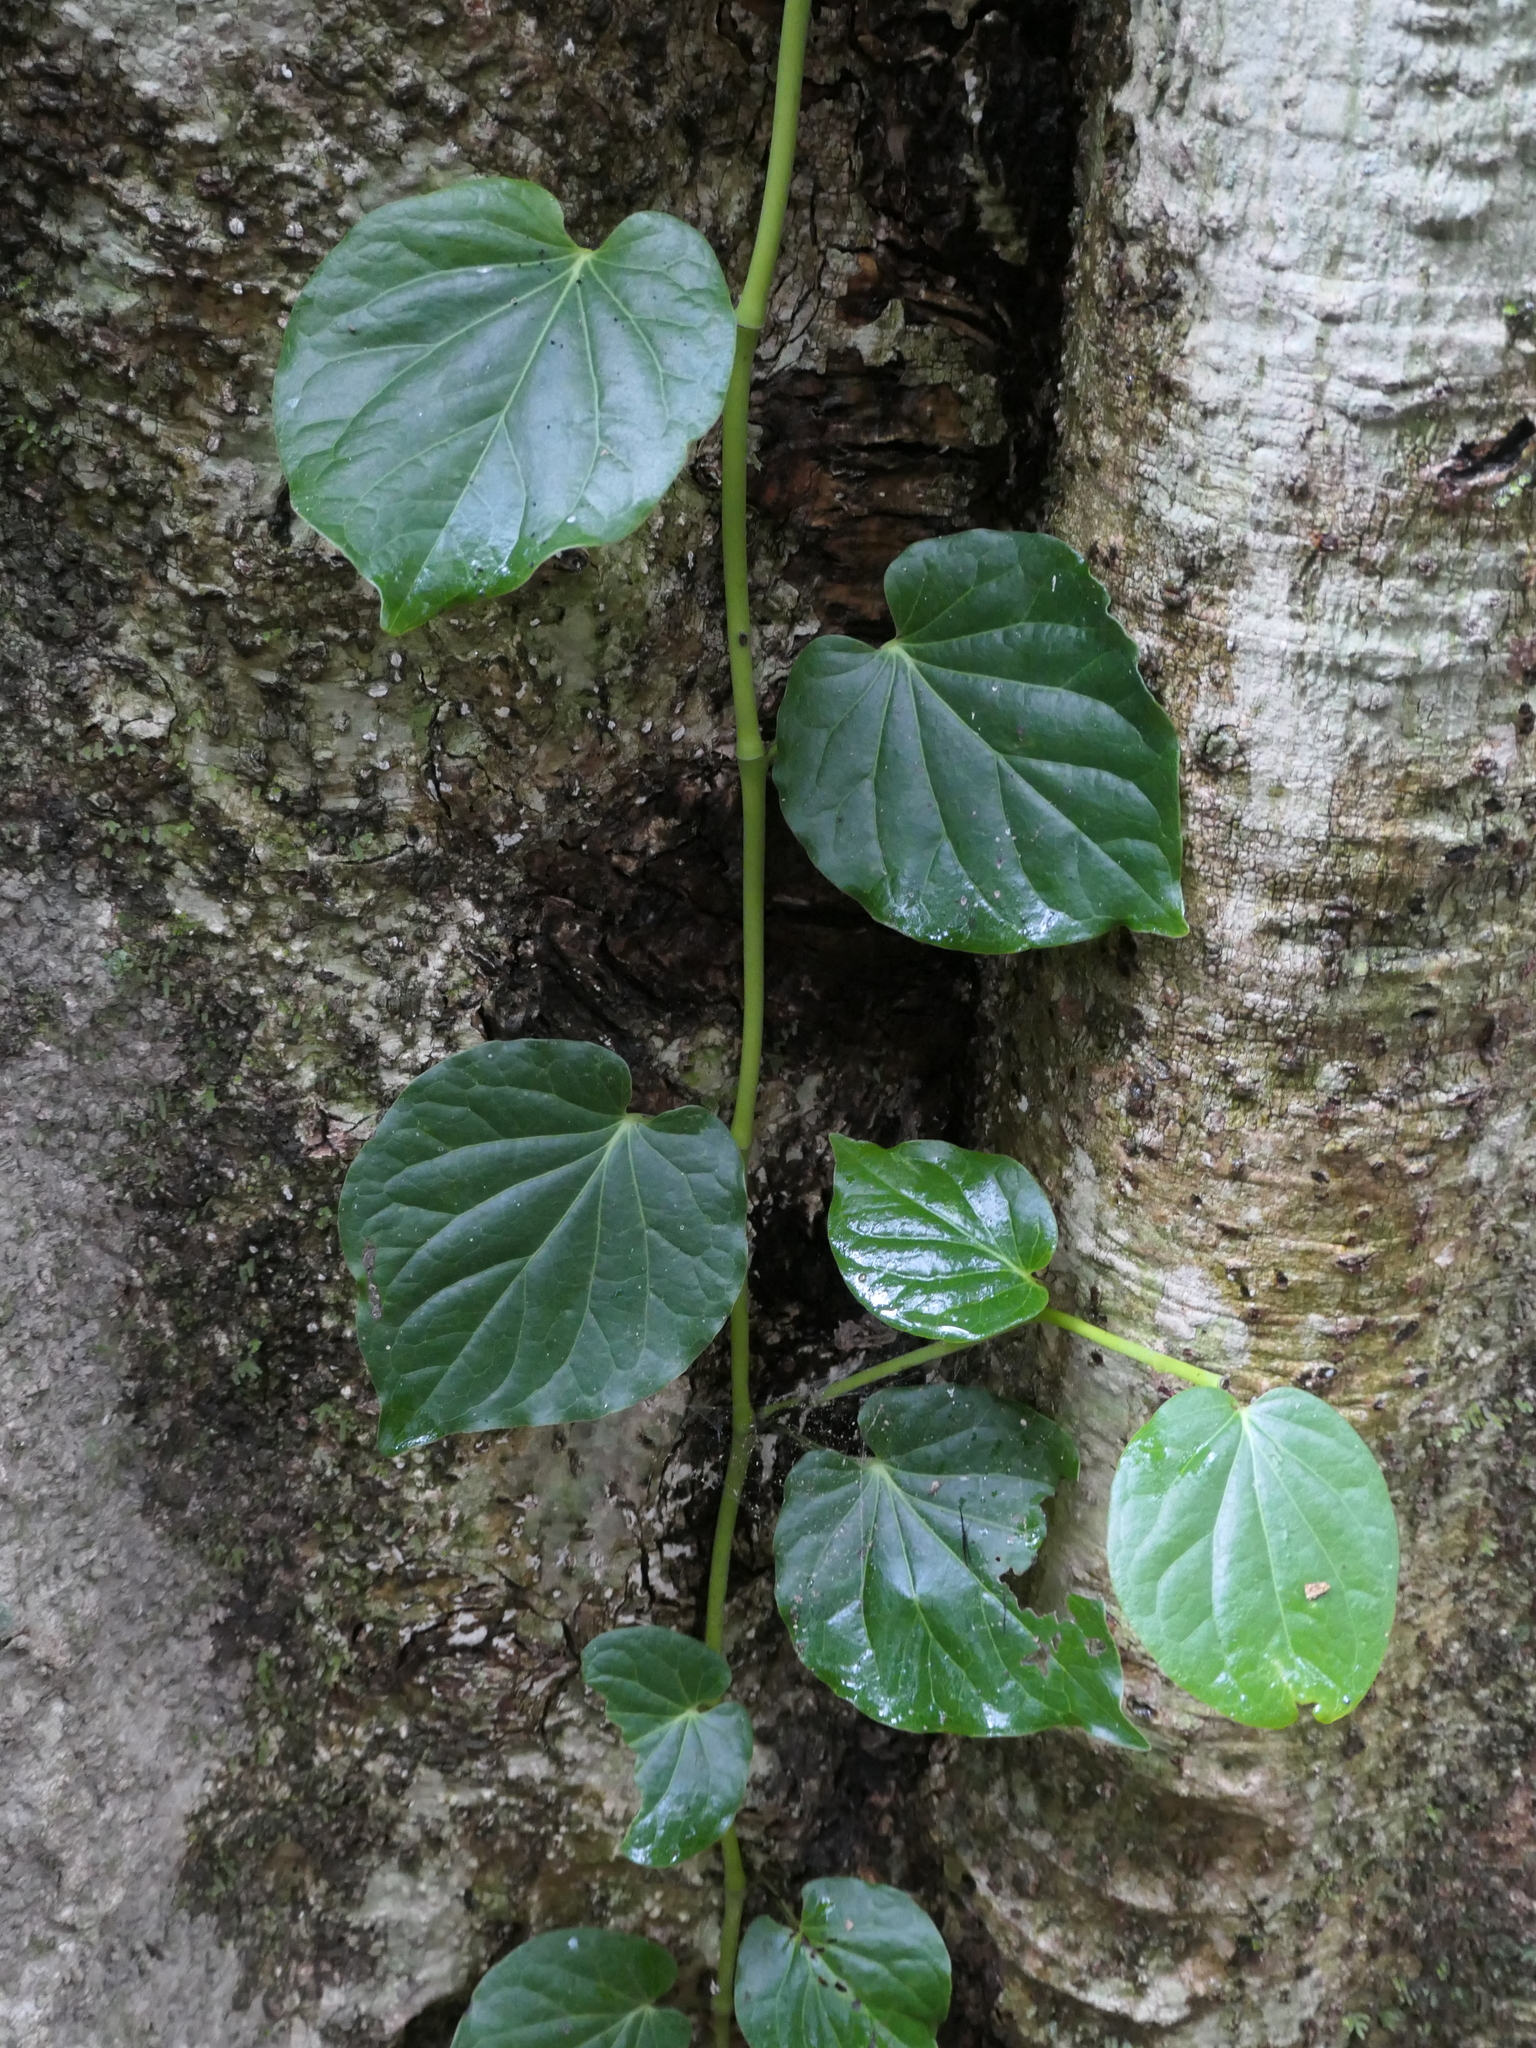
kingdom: Plantae
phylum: Tracheophyta
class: Magnoliopsida
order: Piperales
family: Piperaceae
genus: Piper
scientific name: Piper hederaceum
